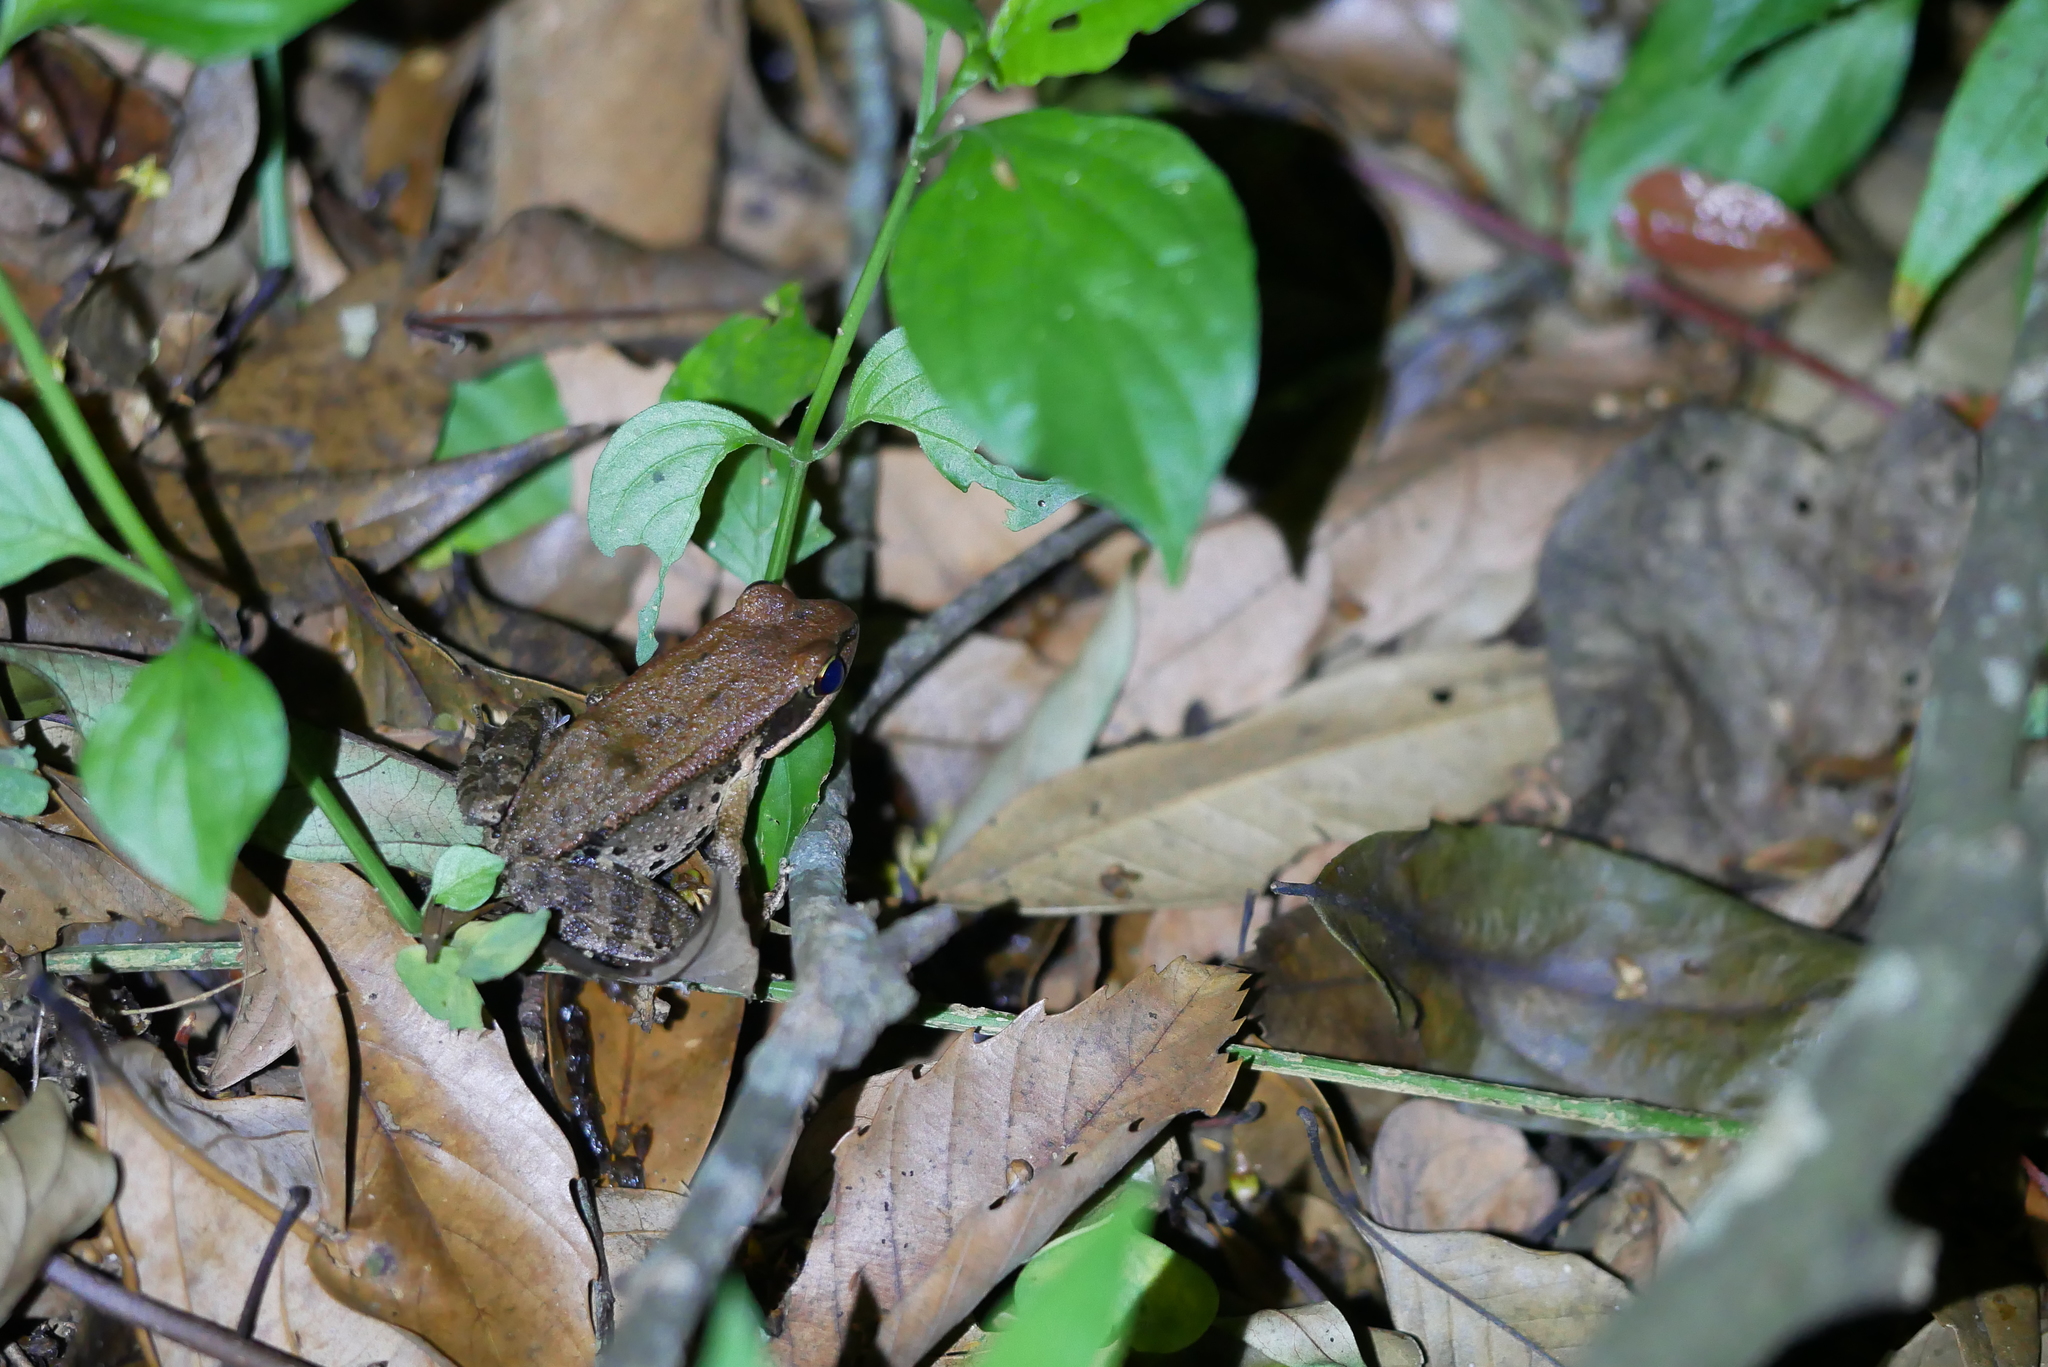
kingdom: Animalia
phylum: Chordata
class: Amphibia
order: Anura
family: Ranidae
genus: Hylarana
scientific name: Hylarana latouchii
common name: Broad-folded frog
